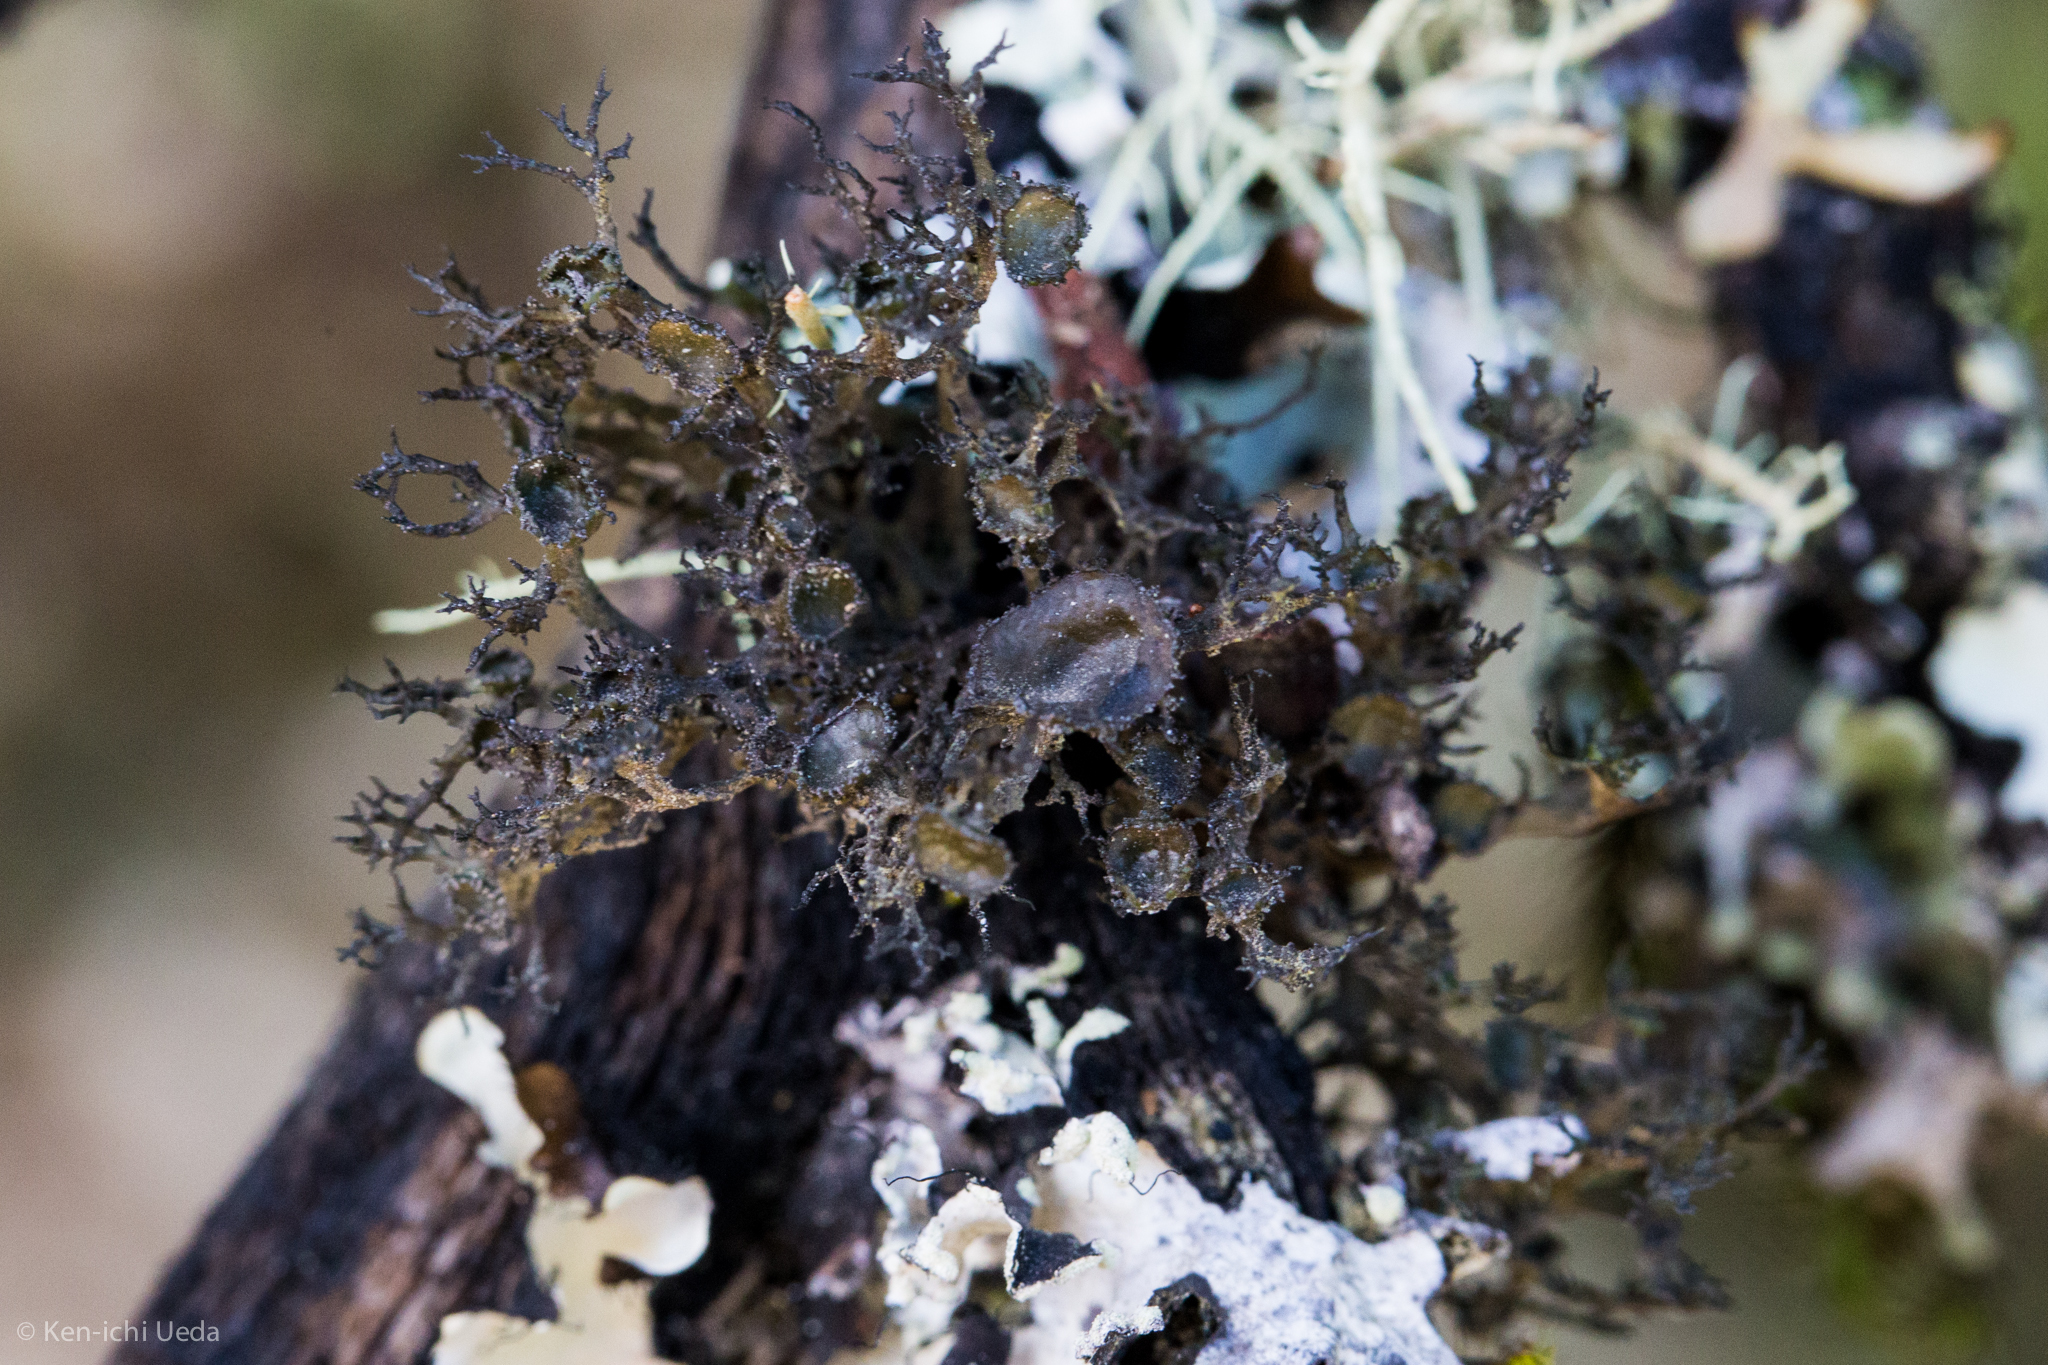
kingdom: Fungi
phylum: Ascomycota
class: Lecanoromycetes
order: Lecanorales
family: Parmeliaceae
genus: Nephromopsis
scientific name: Nephromopsis merrillii
